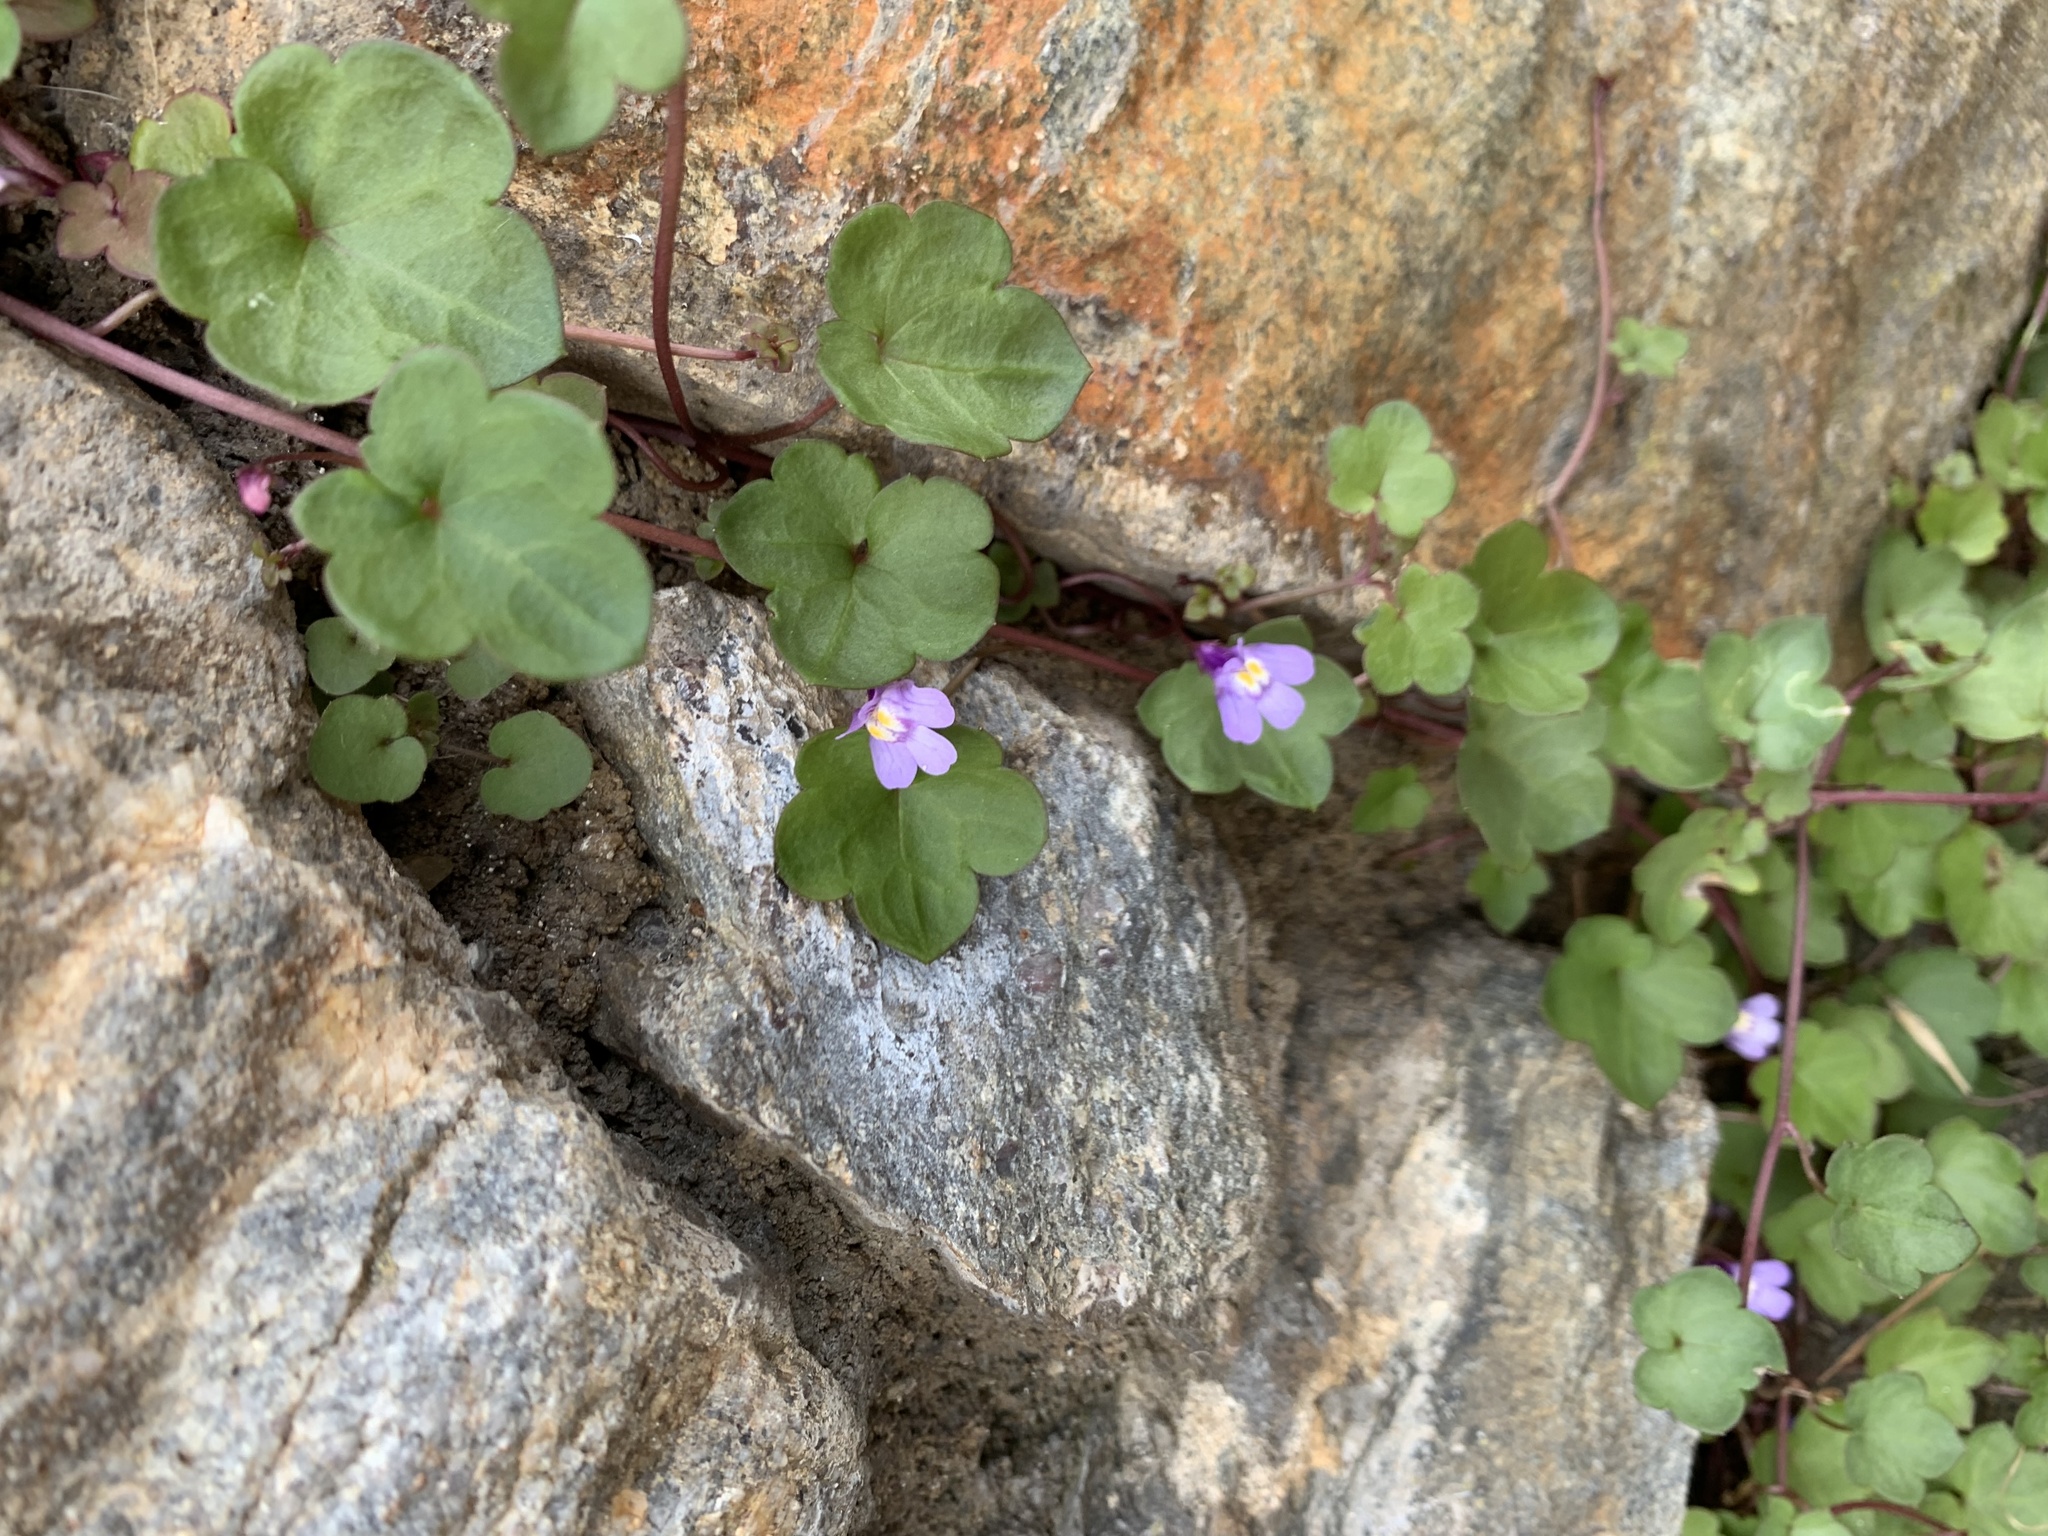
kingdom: Plantae
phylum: Tracheophyta
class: Magnoliopsida
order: Lamiales
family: Plantaginaceae
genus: Cymbalaria
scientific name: Cymbalaria muralis
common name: Ivy-leaved toadflax
